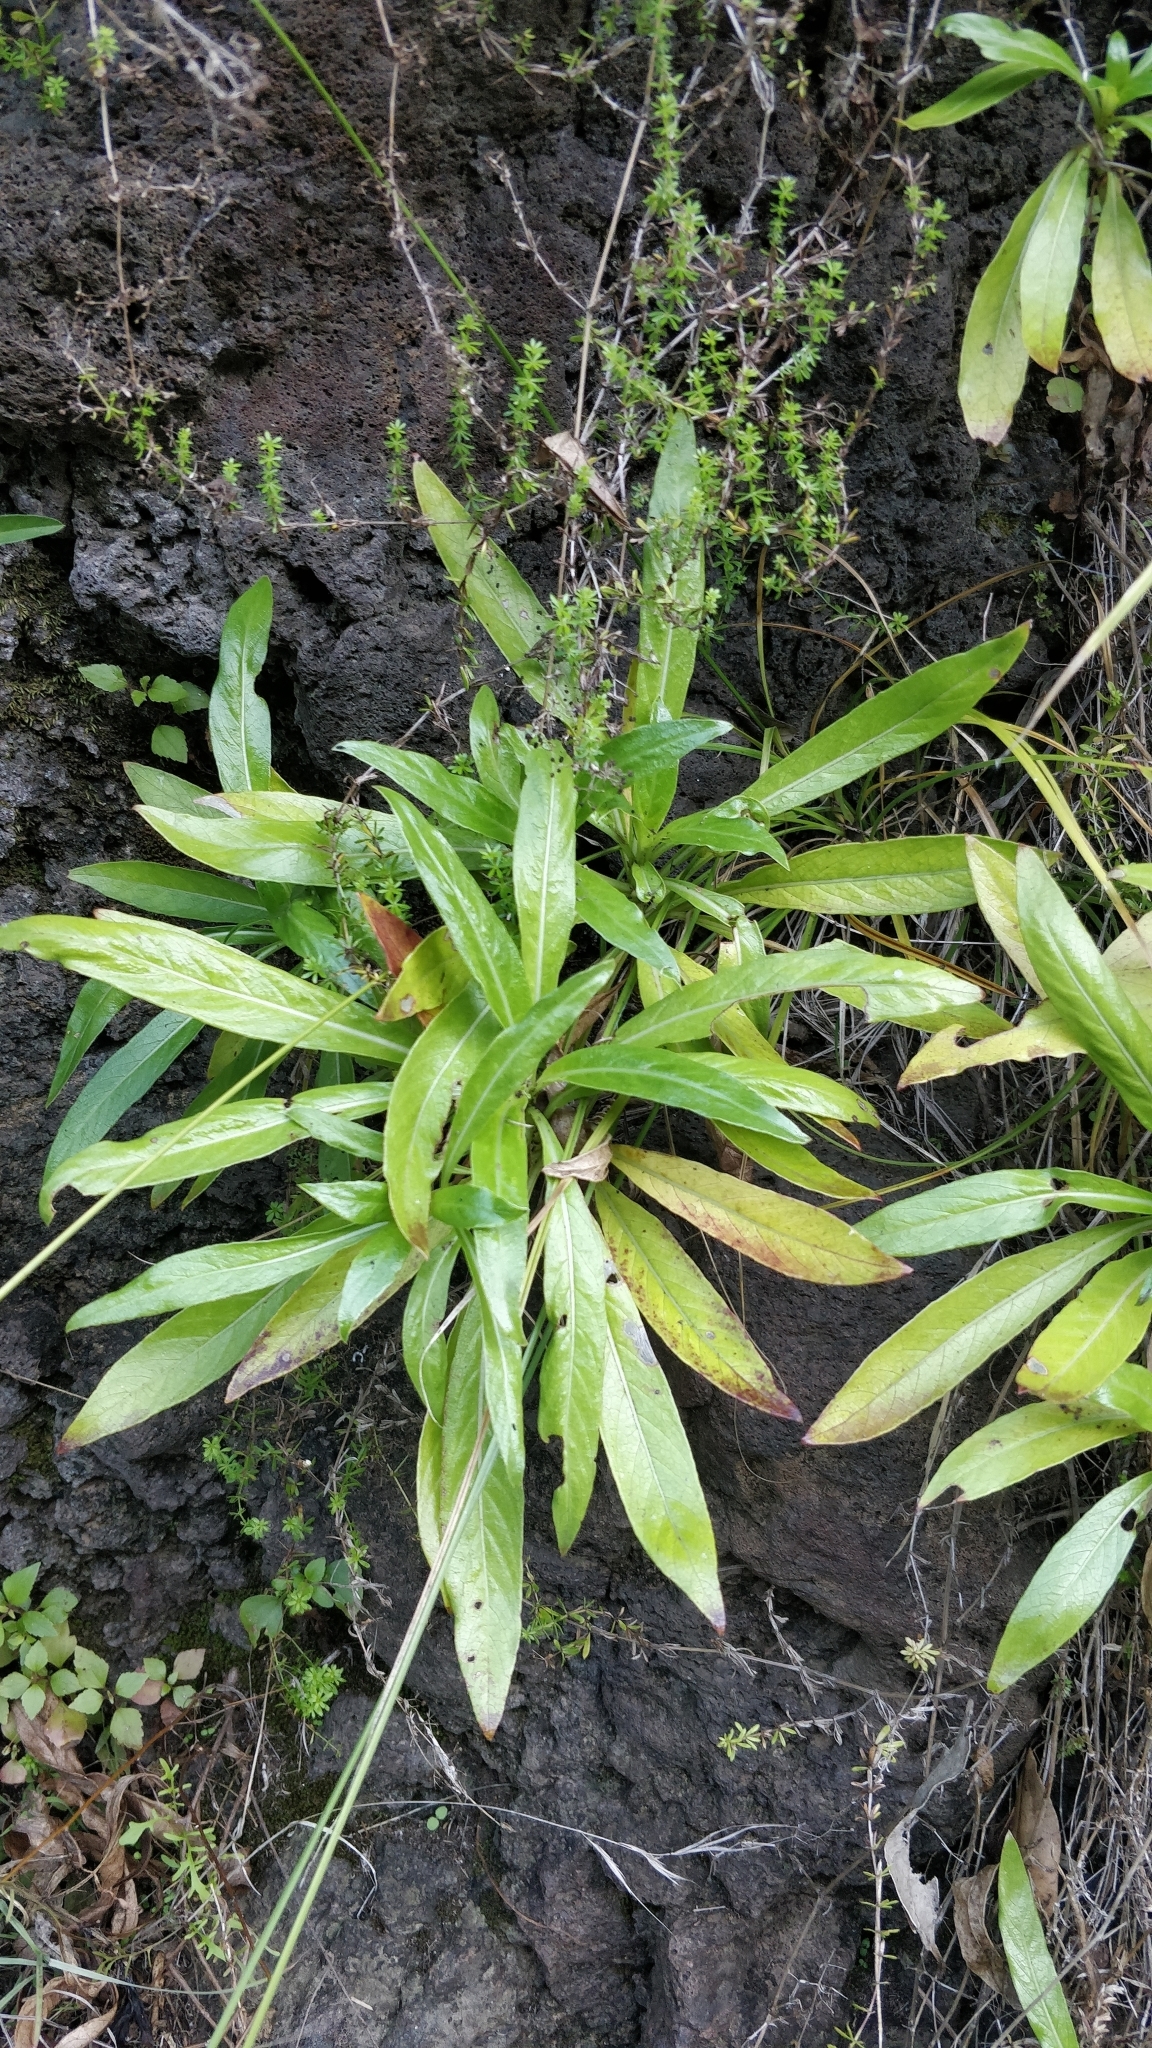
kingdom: Plantae
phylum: Tracheophyta
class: Magnoliopsida
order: Gentianales
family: Rubiaceae
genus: Phyllis
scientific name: Phyllis nobla
